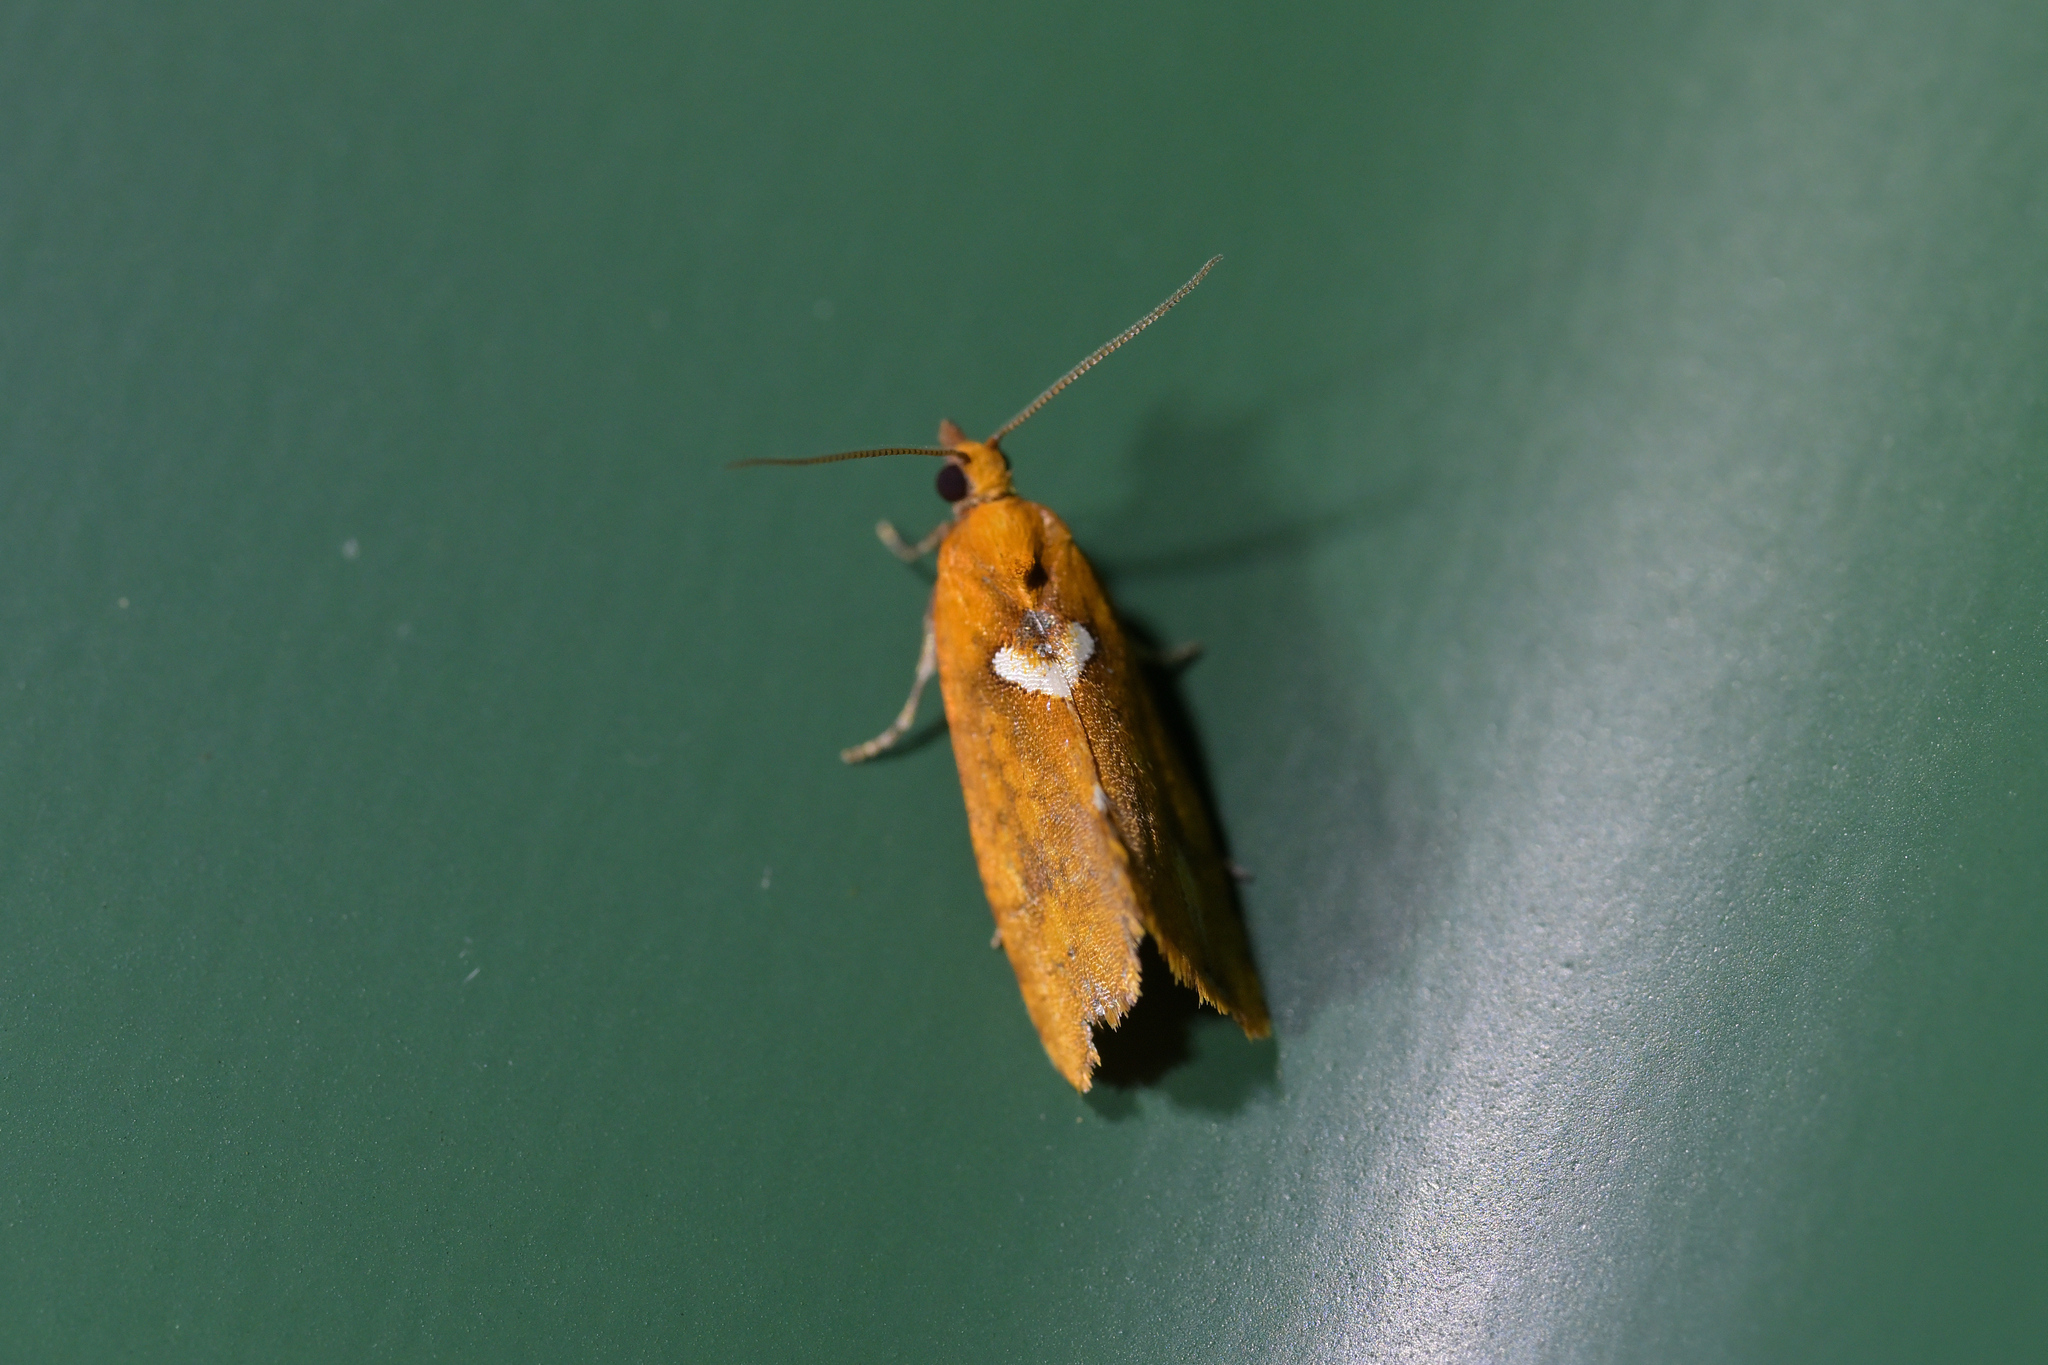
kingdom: Animalia
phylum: Arthropoda
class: Insecta
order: Lepidoptera
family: Tortricidae
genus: Pyrgotis
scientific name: Pyrgotis pyramidias
